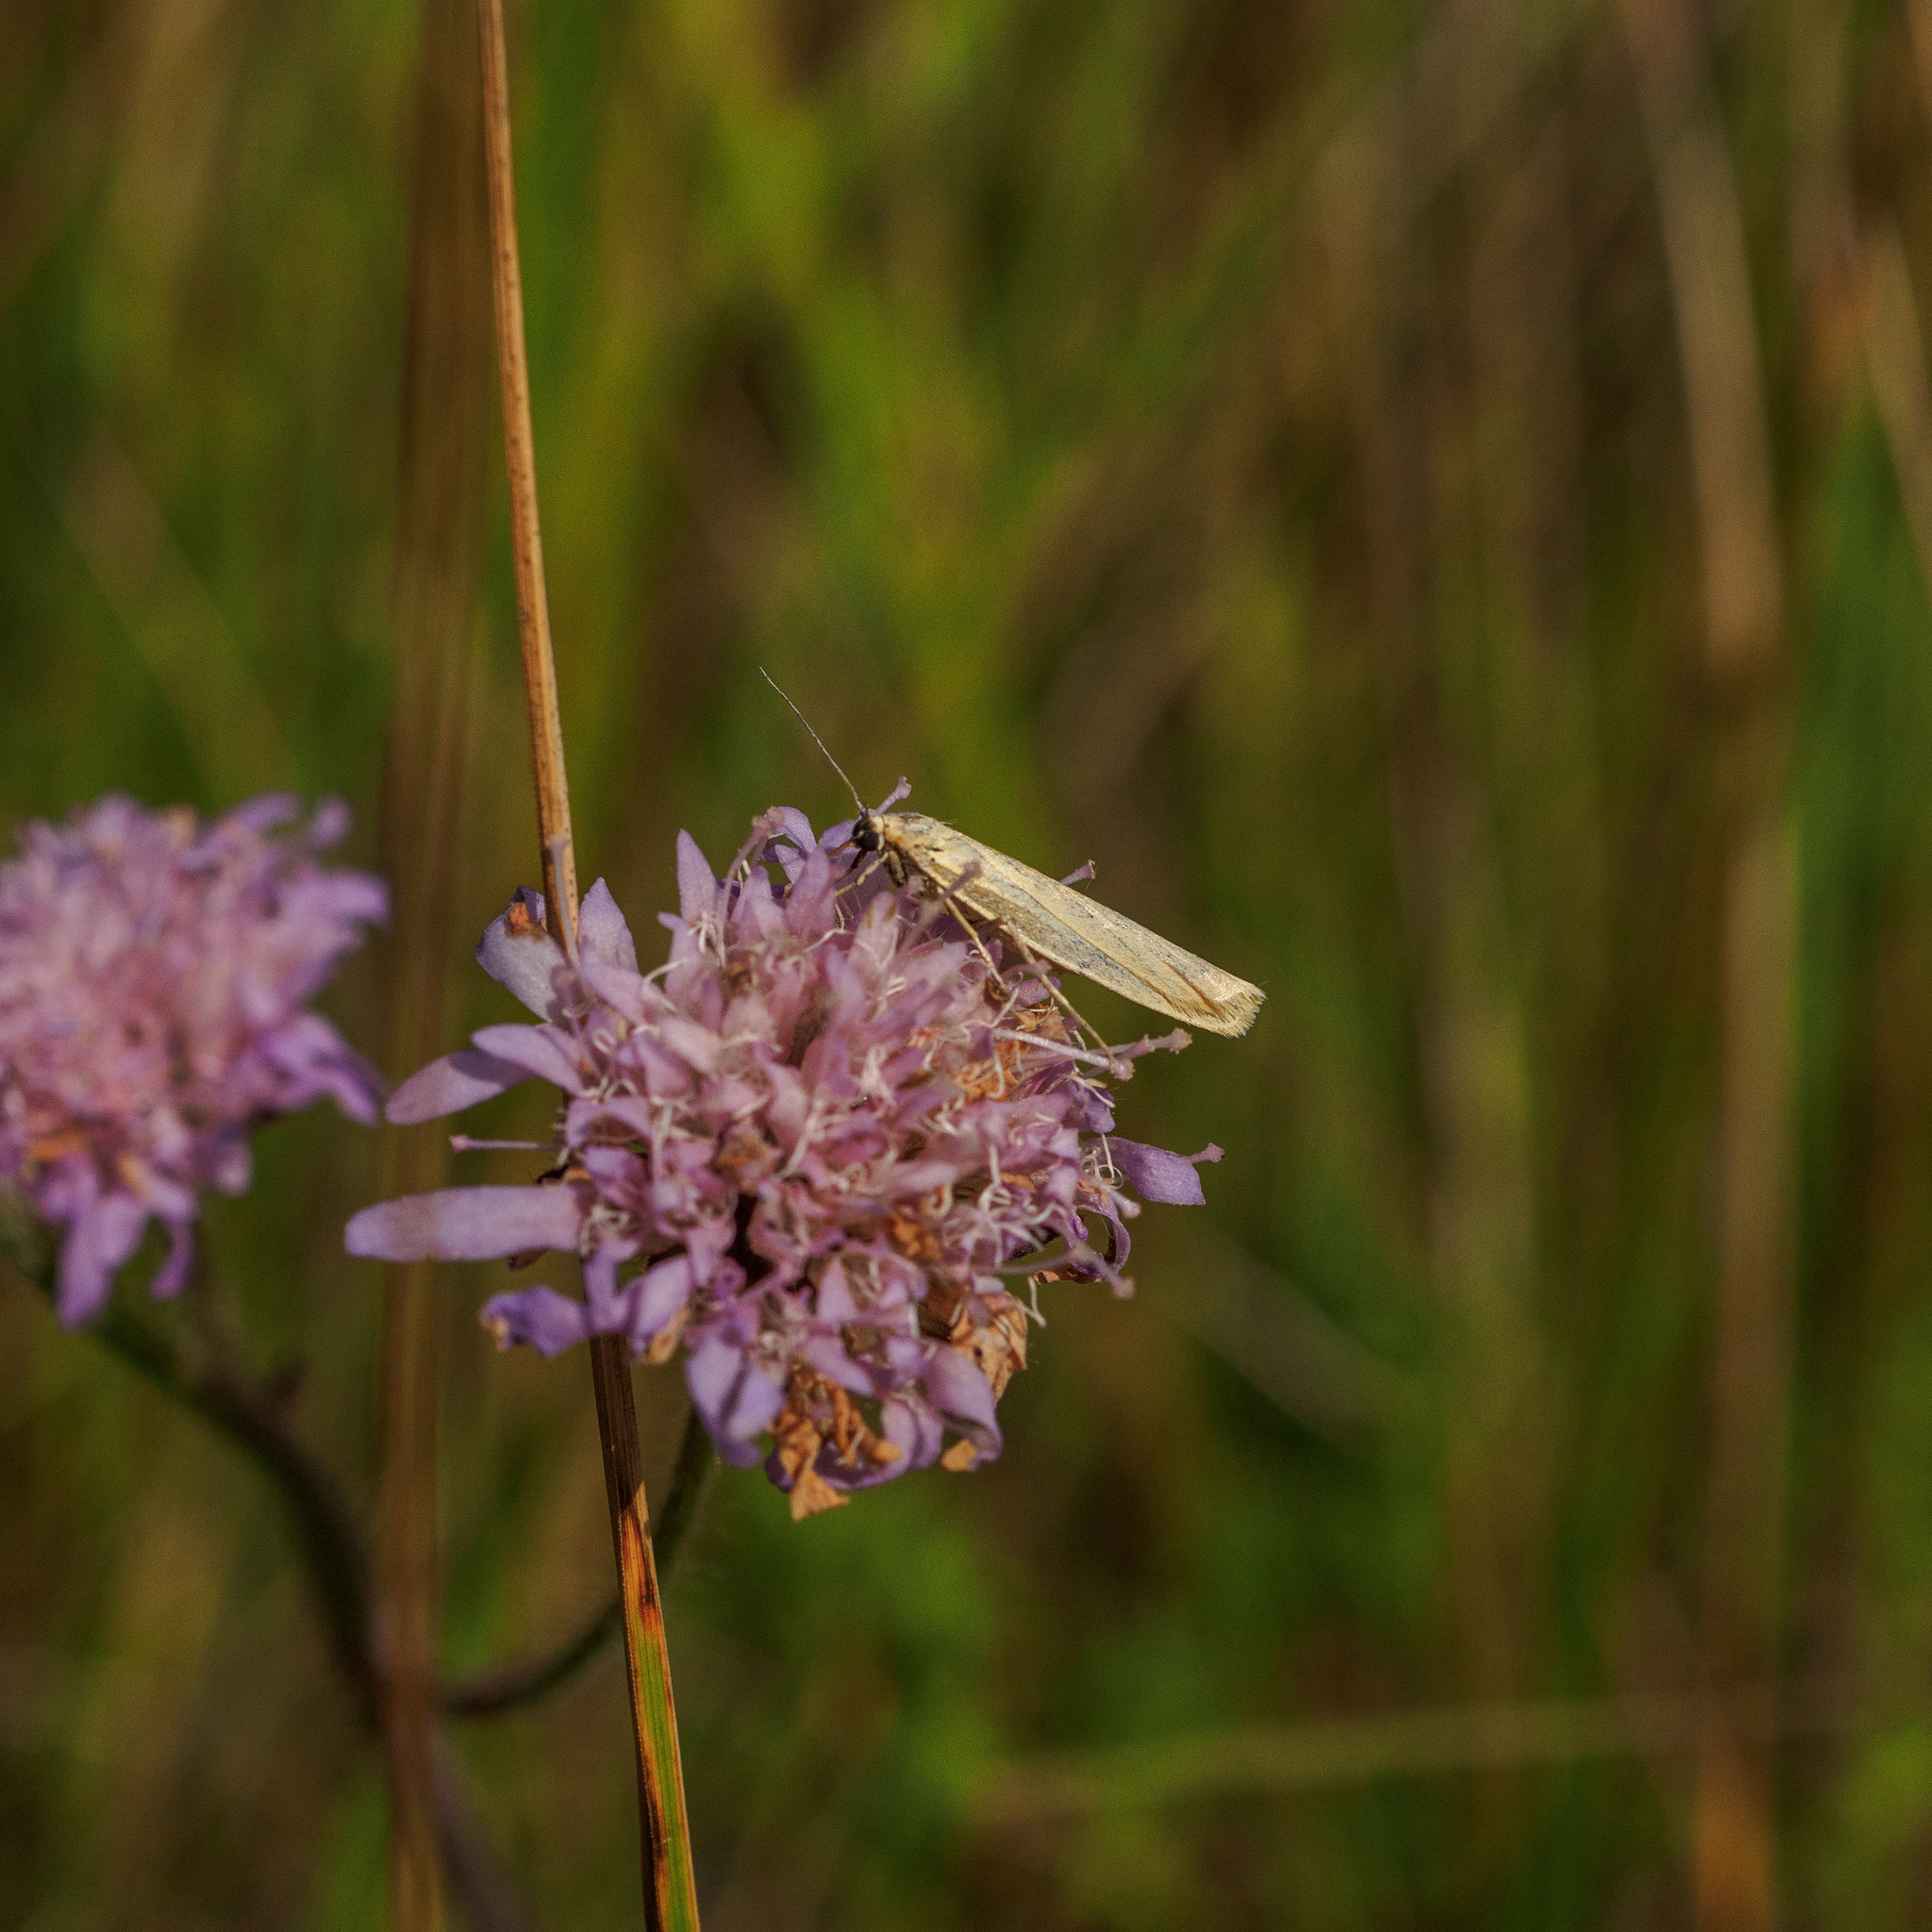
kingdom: Animalia
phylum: Arthropoda
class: Insecta
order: Lepidoptera
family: Erebidae
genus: Indalia
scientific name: Indalia lutarella
